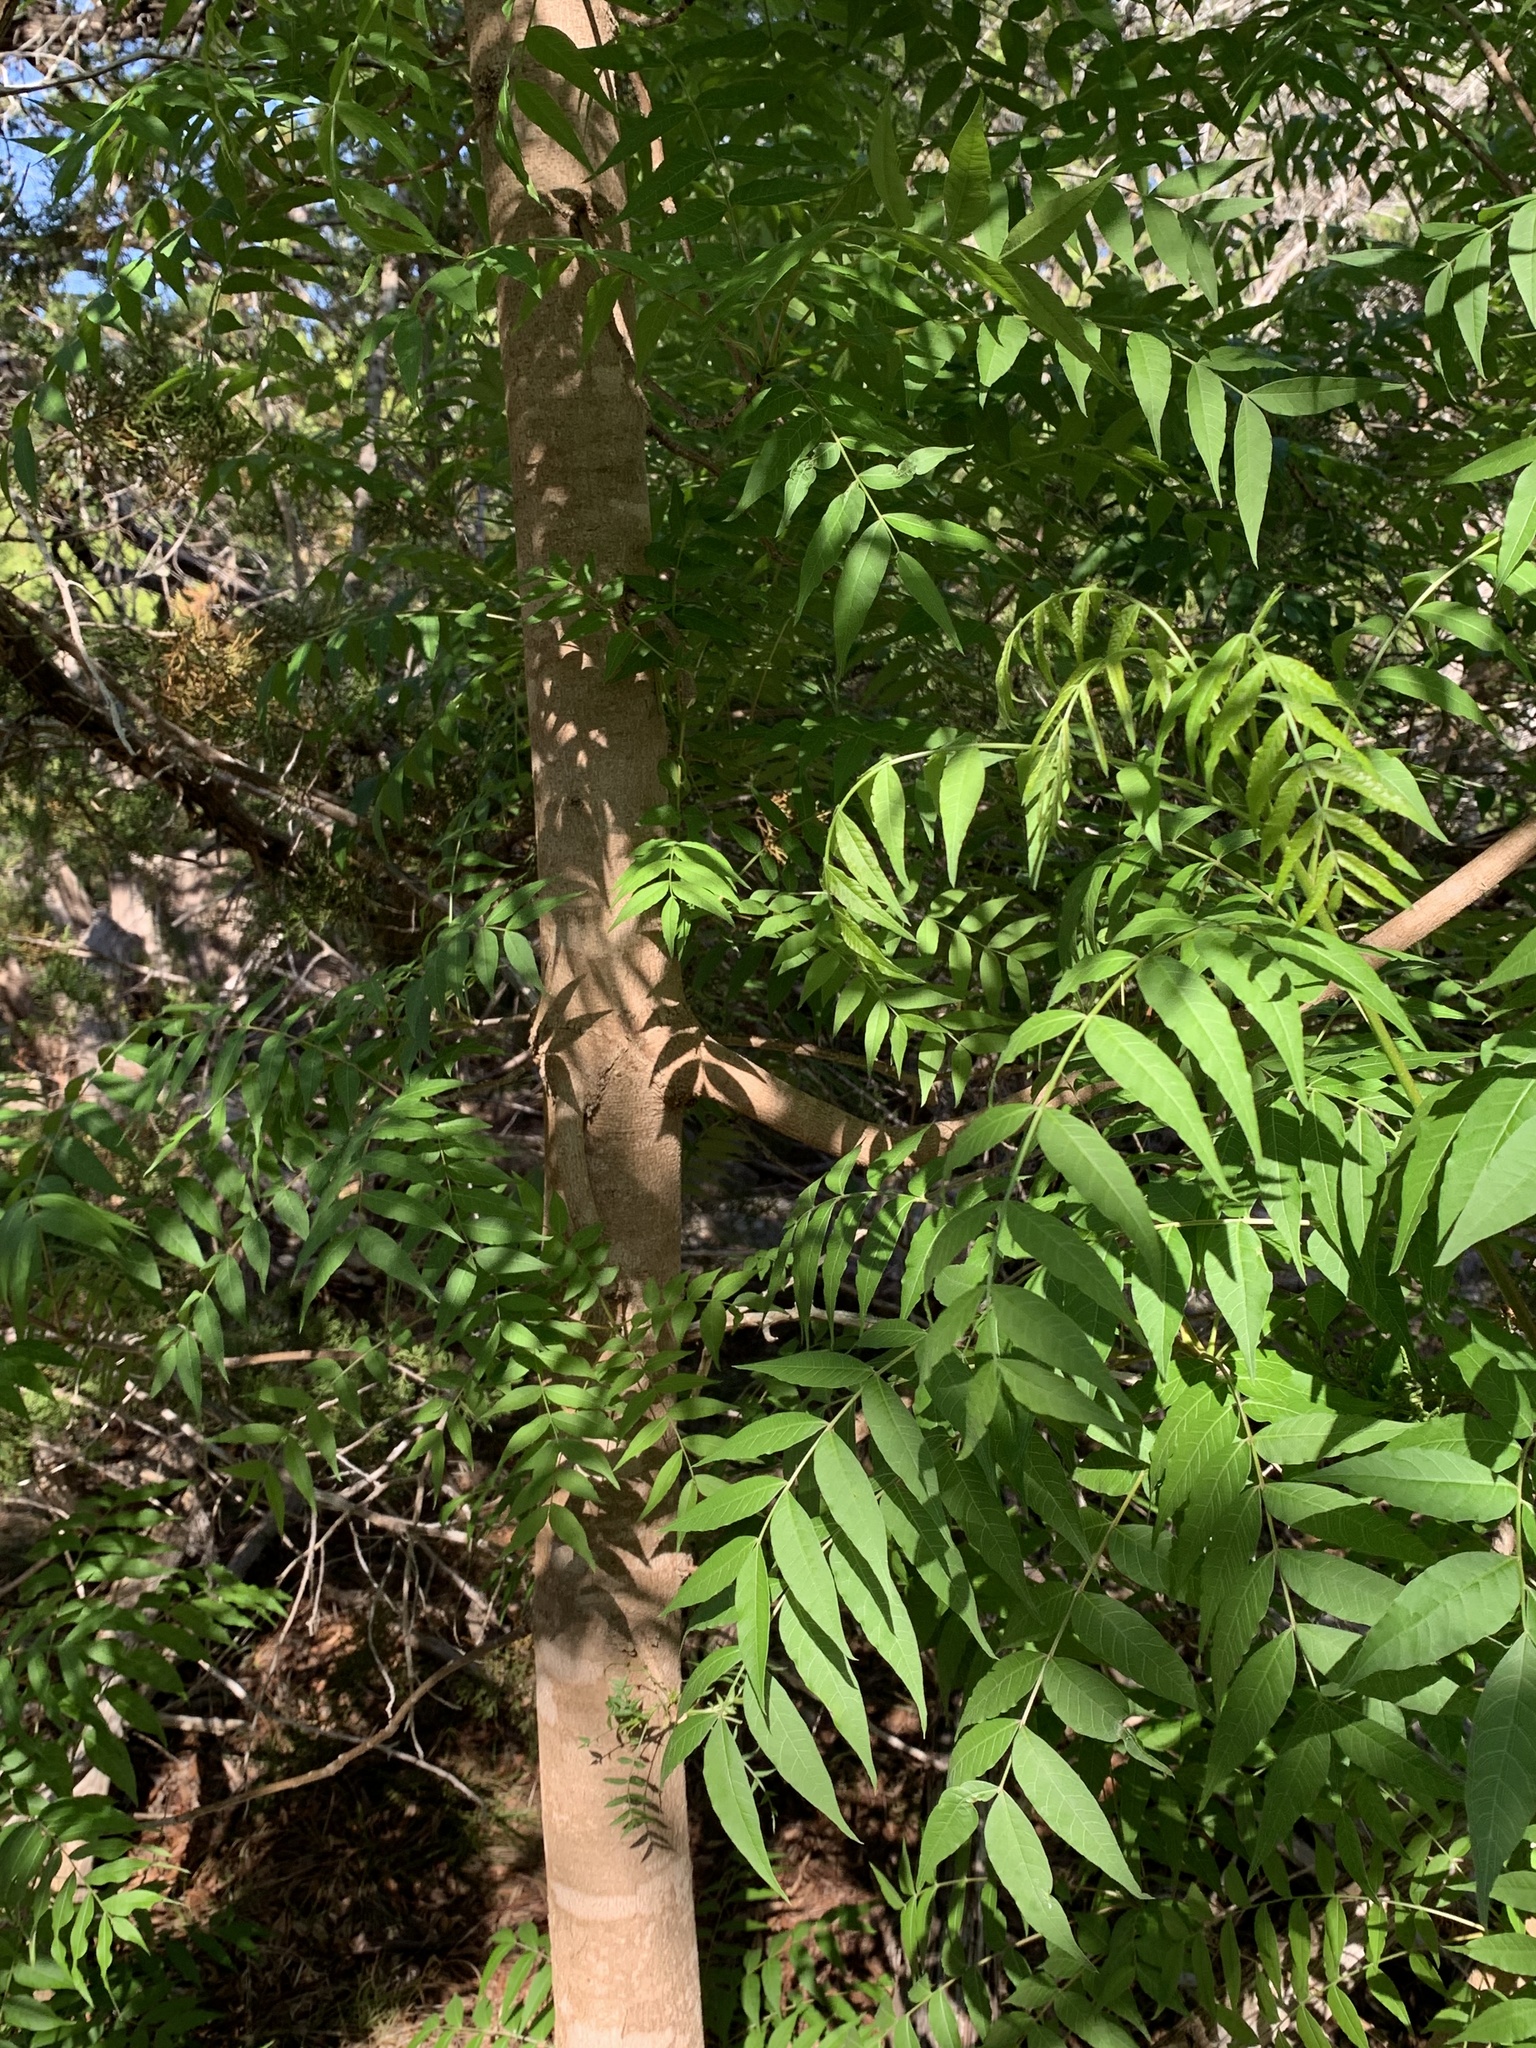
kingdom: Plantae
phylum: Tracheophyta
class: Magnoliopsida
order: Sapindales
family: Anacardiaceae
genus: Pistacia
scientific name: Pistacia chinensis
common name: Chinese pistache
